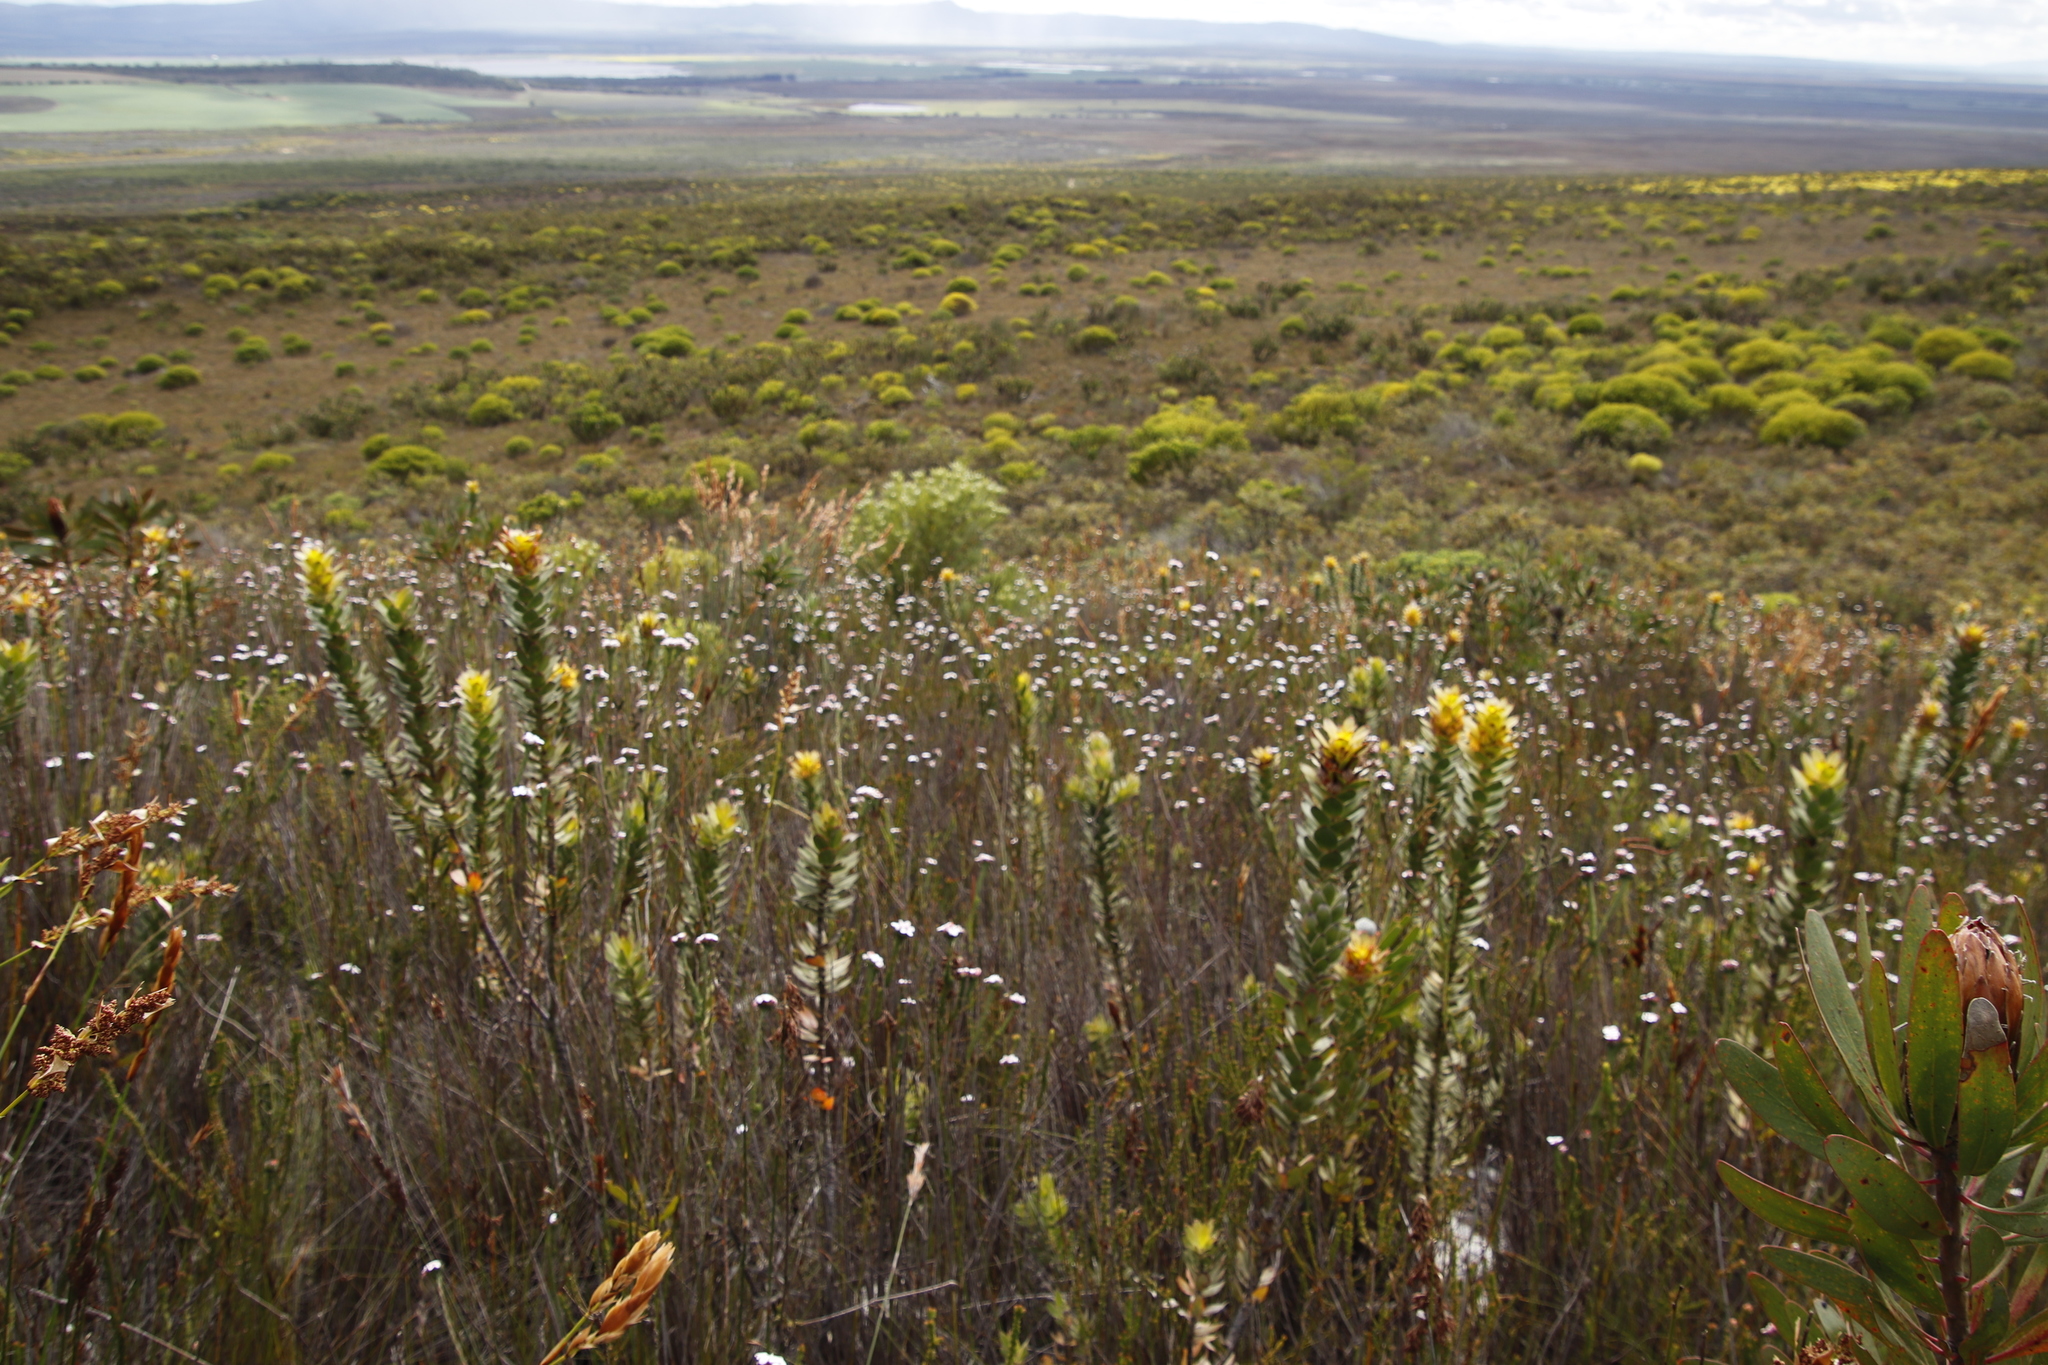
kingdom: Plantae
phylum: Tracheophyta
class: Magnoliopsida
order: Proteales
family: Proteaceae
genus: Leucadendron
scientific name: Leucadendron meridianum
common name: Limestone conebush
